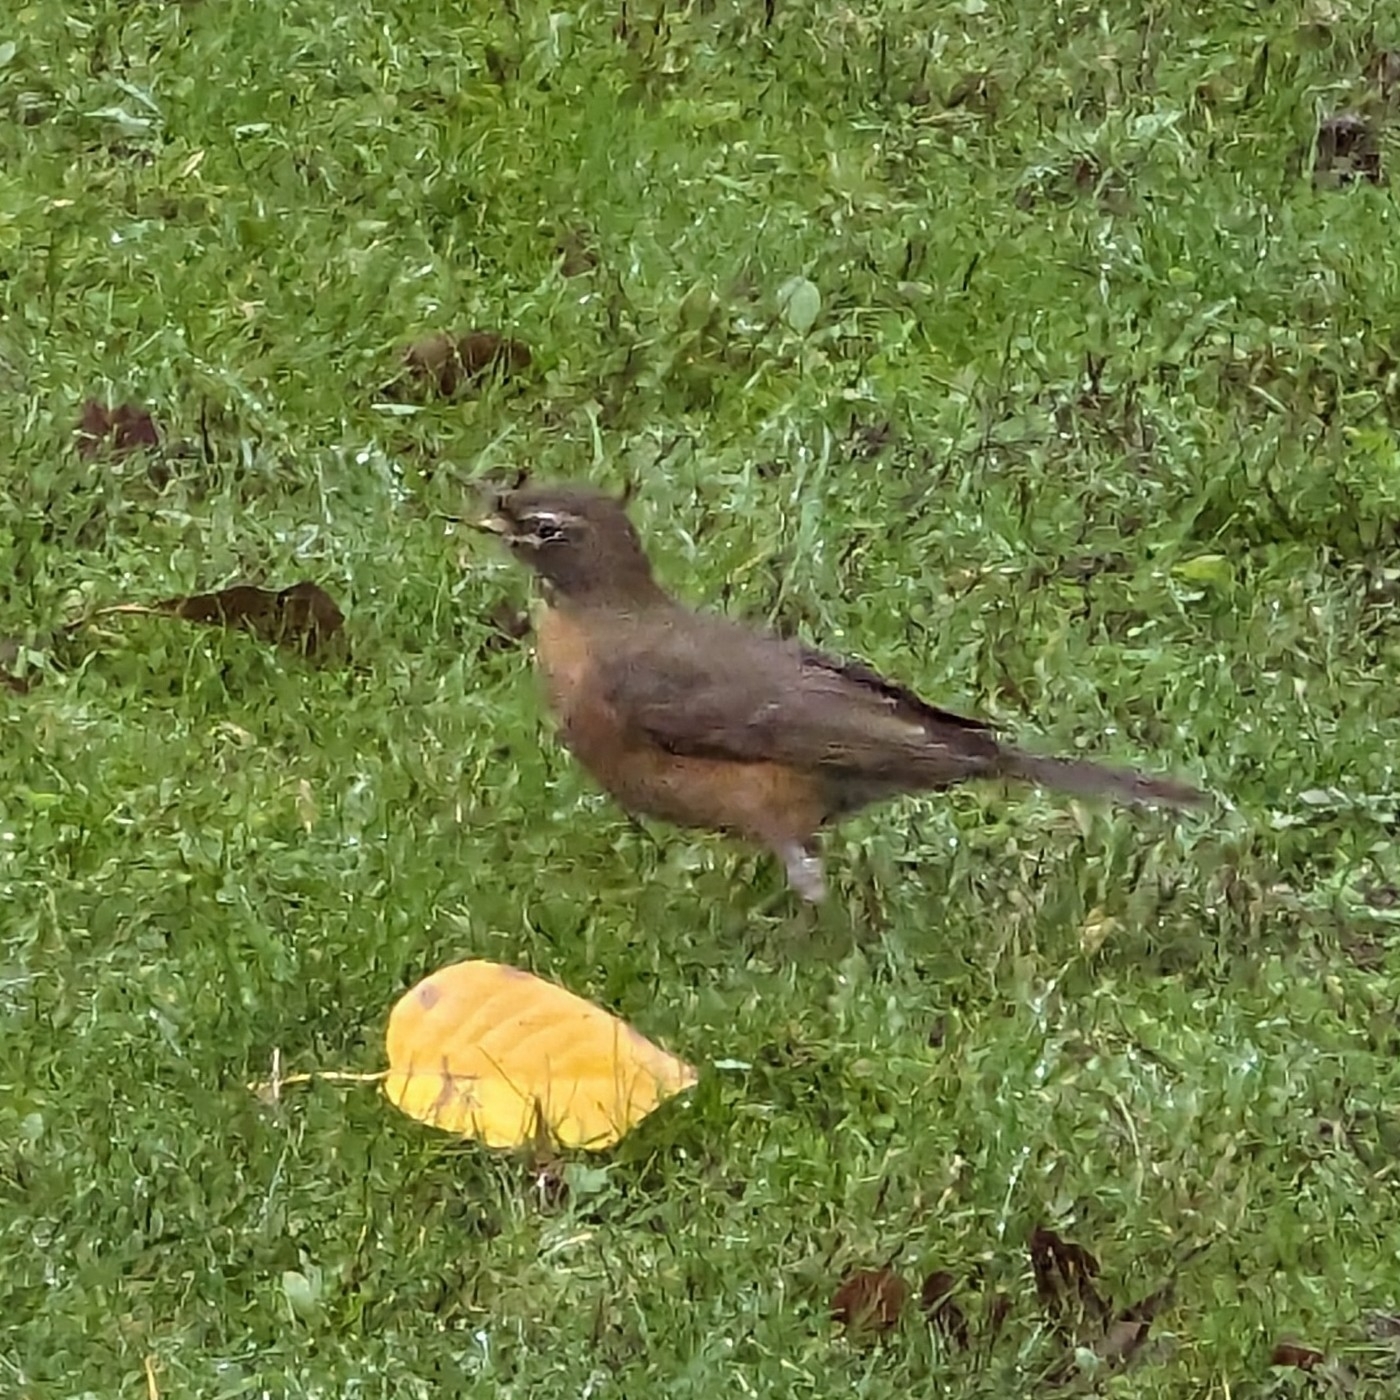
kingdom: Animalia
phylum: Chordata
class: Aves
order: Passeriformes
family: Turdidae
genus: Turdus
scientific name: Turdus migratorius
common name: American robin
